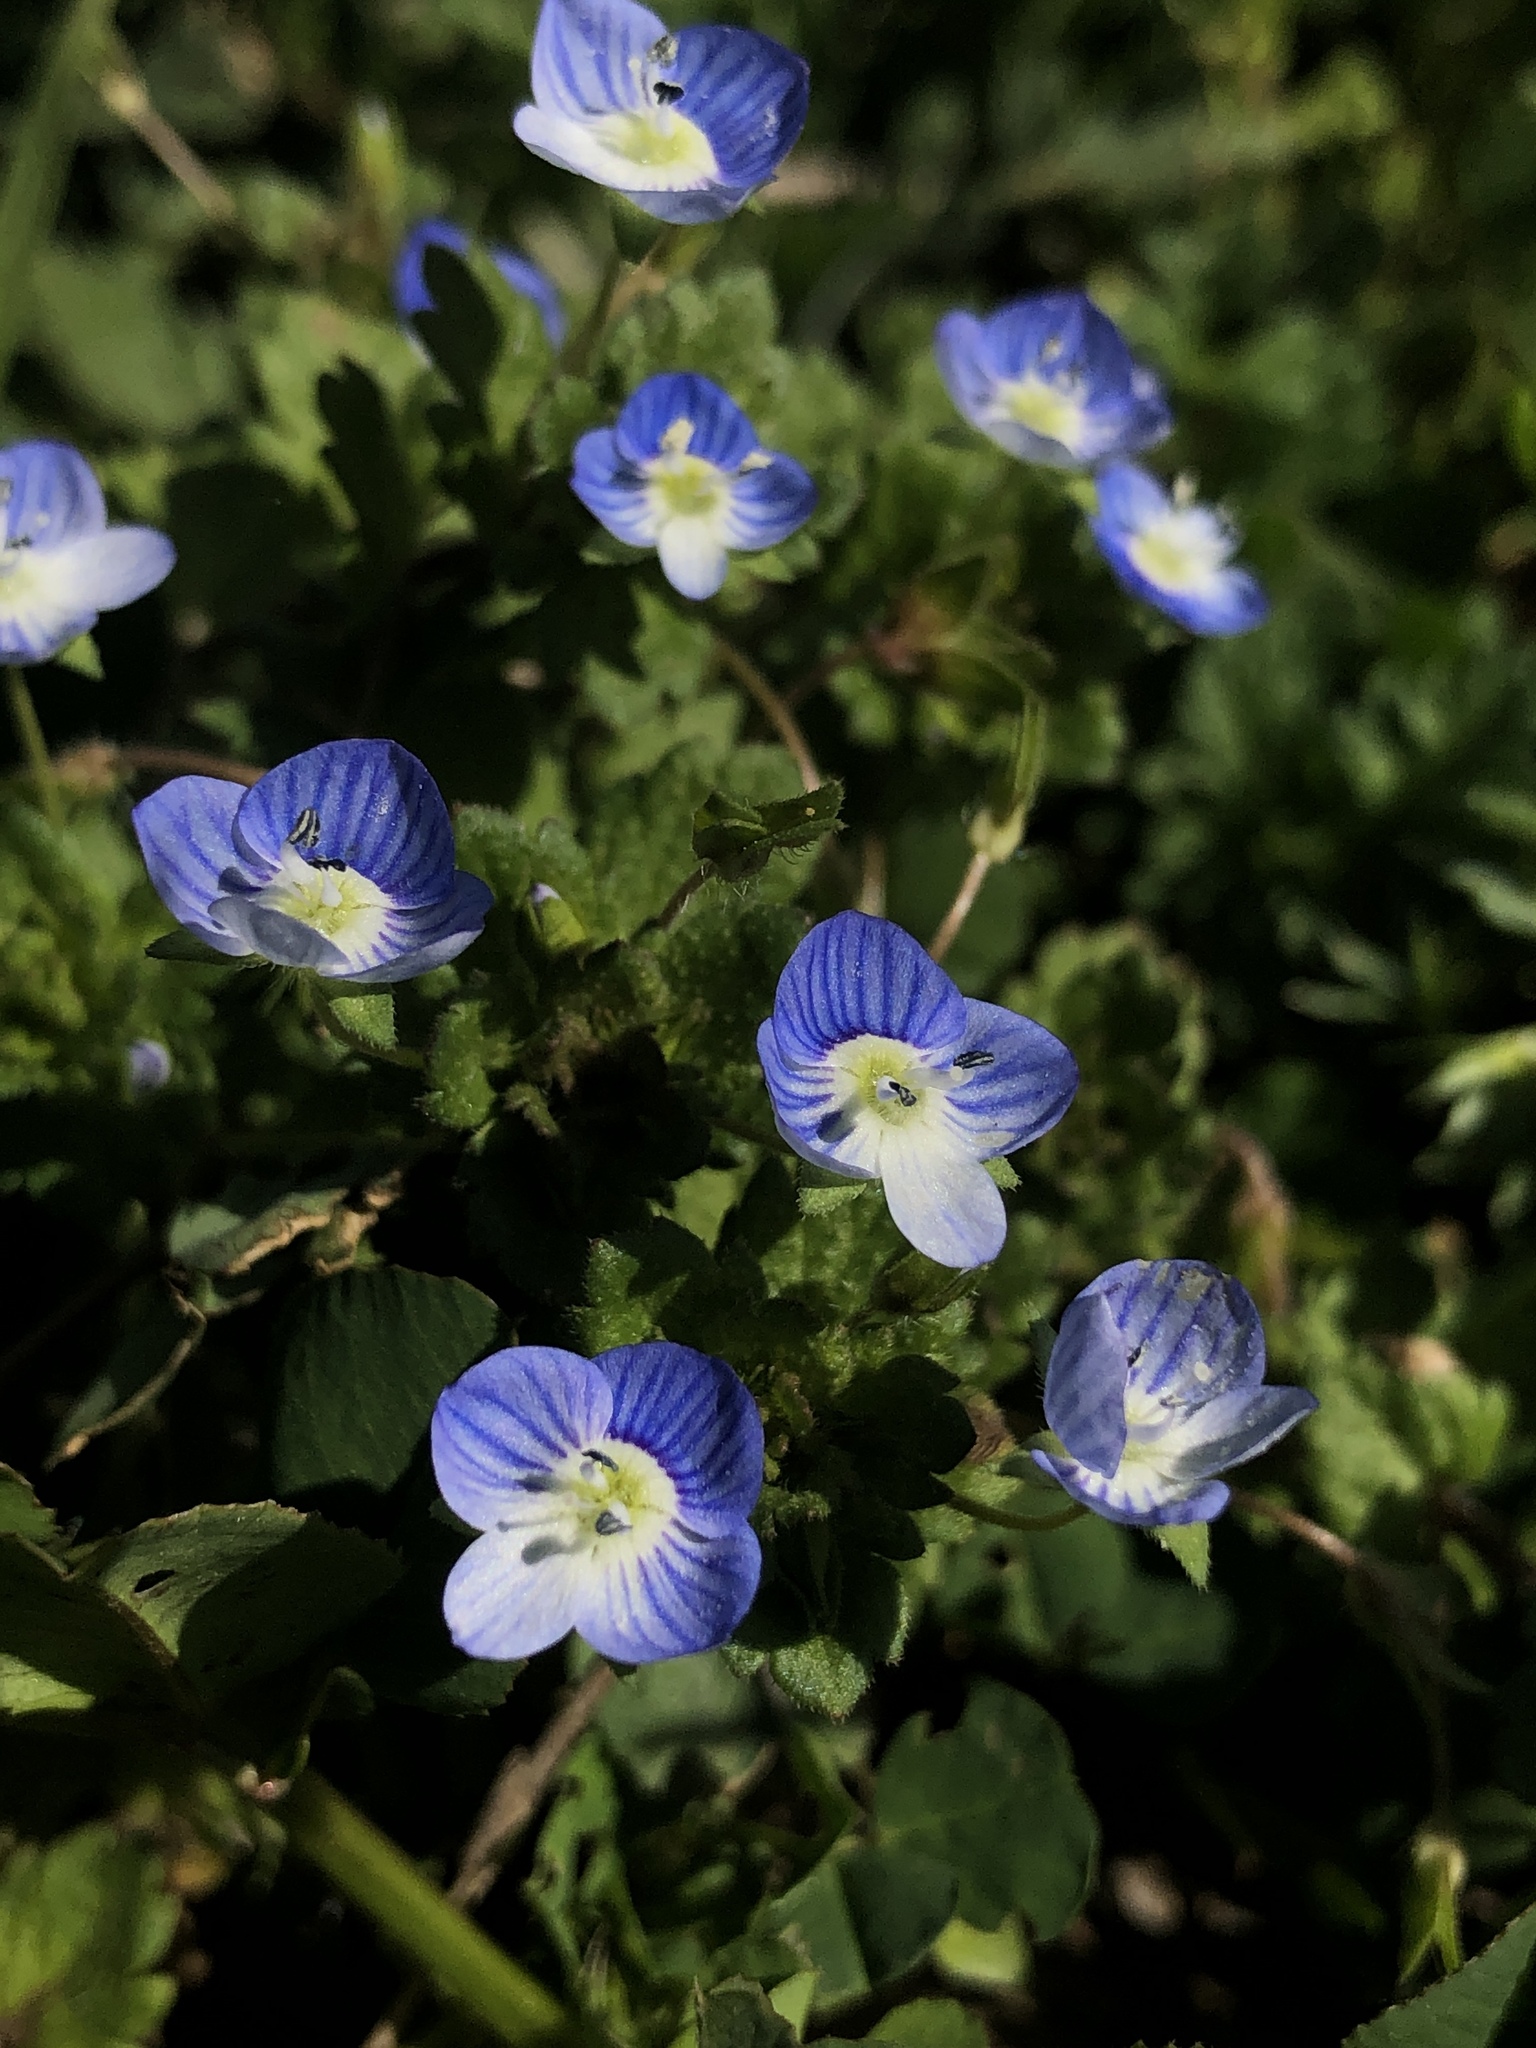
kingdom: Plantae
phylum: Tracheophyta
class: Magnoliopsida
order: Lamiales
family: Plantaginaceae
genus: Veronica
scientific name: Veronica persica
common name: Common field-speedwell
